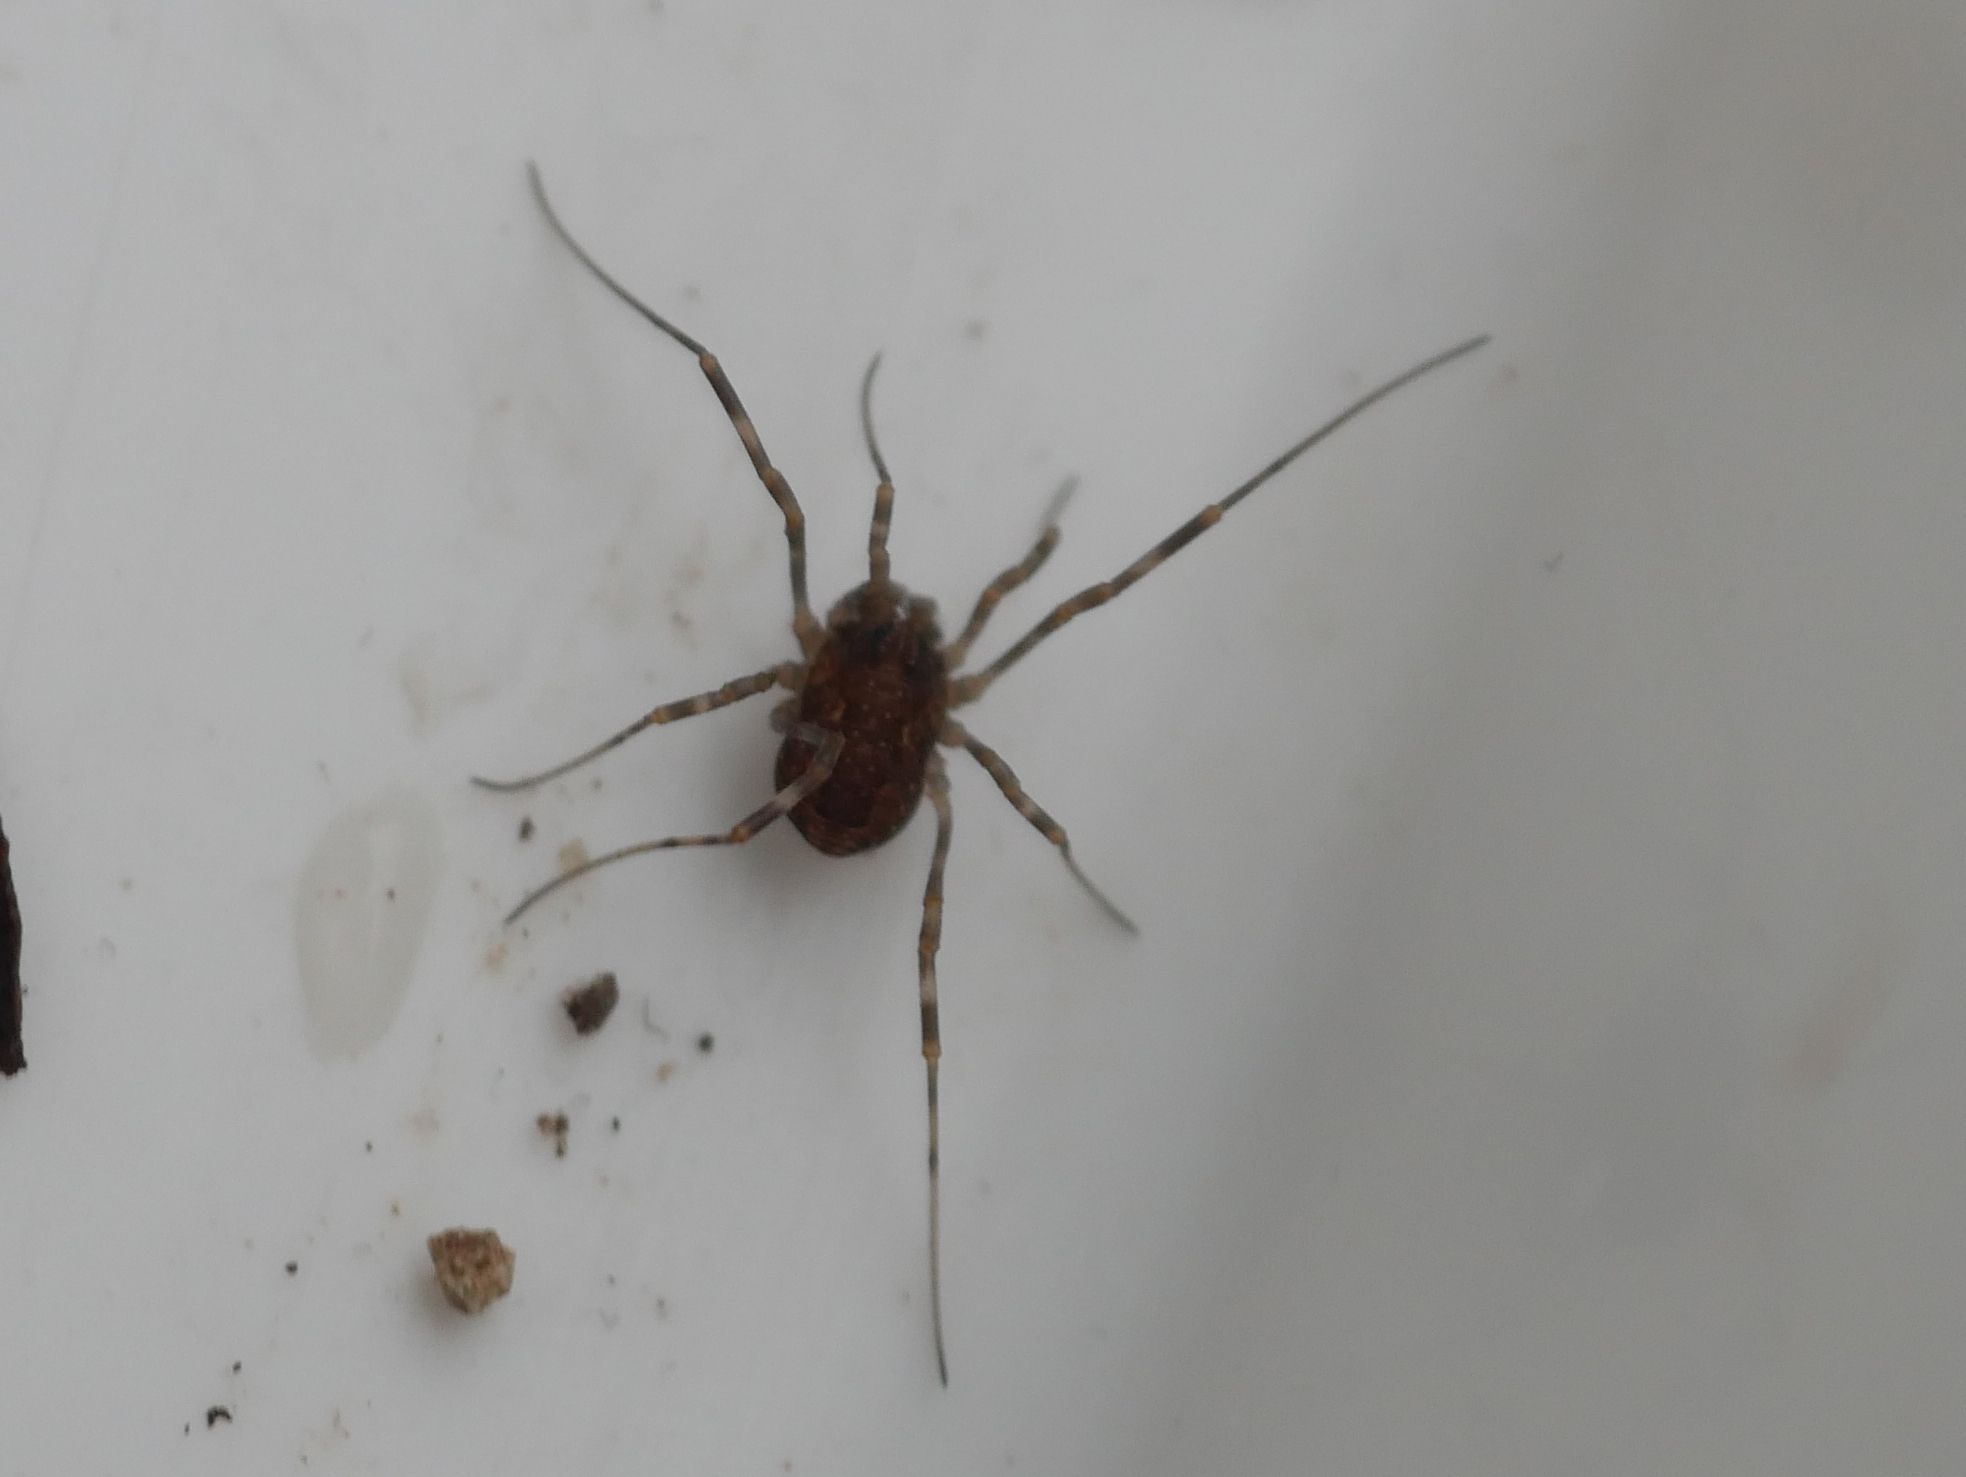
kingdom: Animalia
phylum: Arthropoda
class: Arachnida
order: Opiliones
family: Phalangiidae
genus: Rilaena
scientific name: Rilaena triangularis
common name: Spring harvestman
